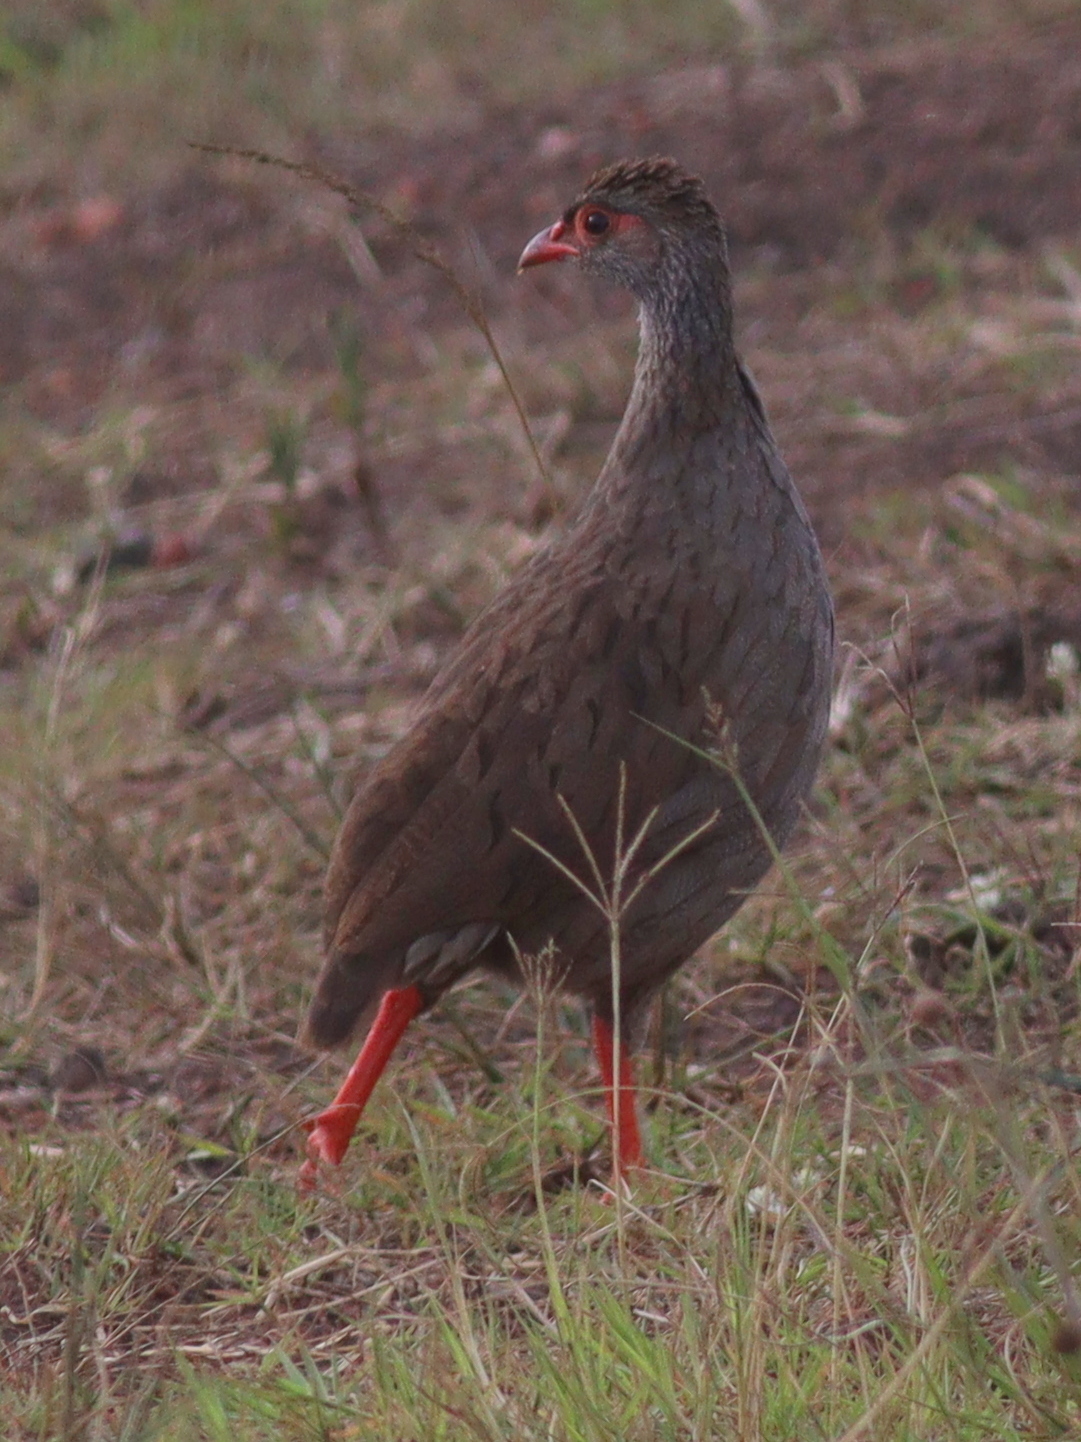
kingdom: Animalia
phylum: Chordata
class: Aves
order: Galliformes
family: Phasianidae
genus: Pternistis
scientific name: Pternistis afer
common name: Red-necked spurfowl
